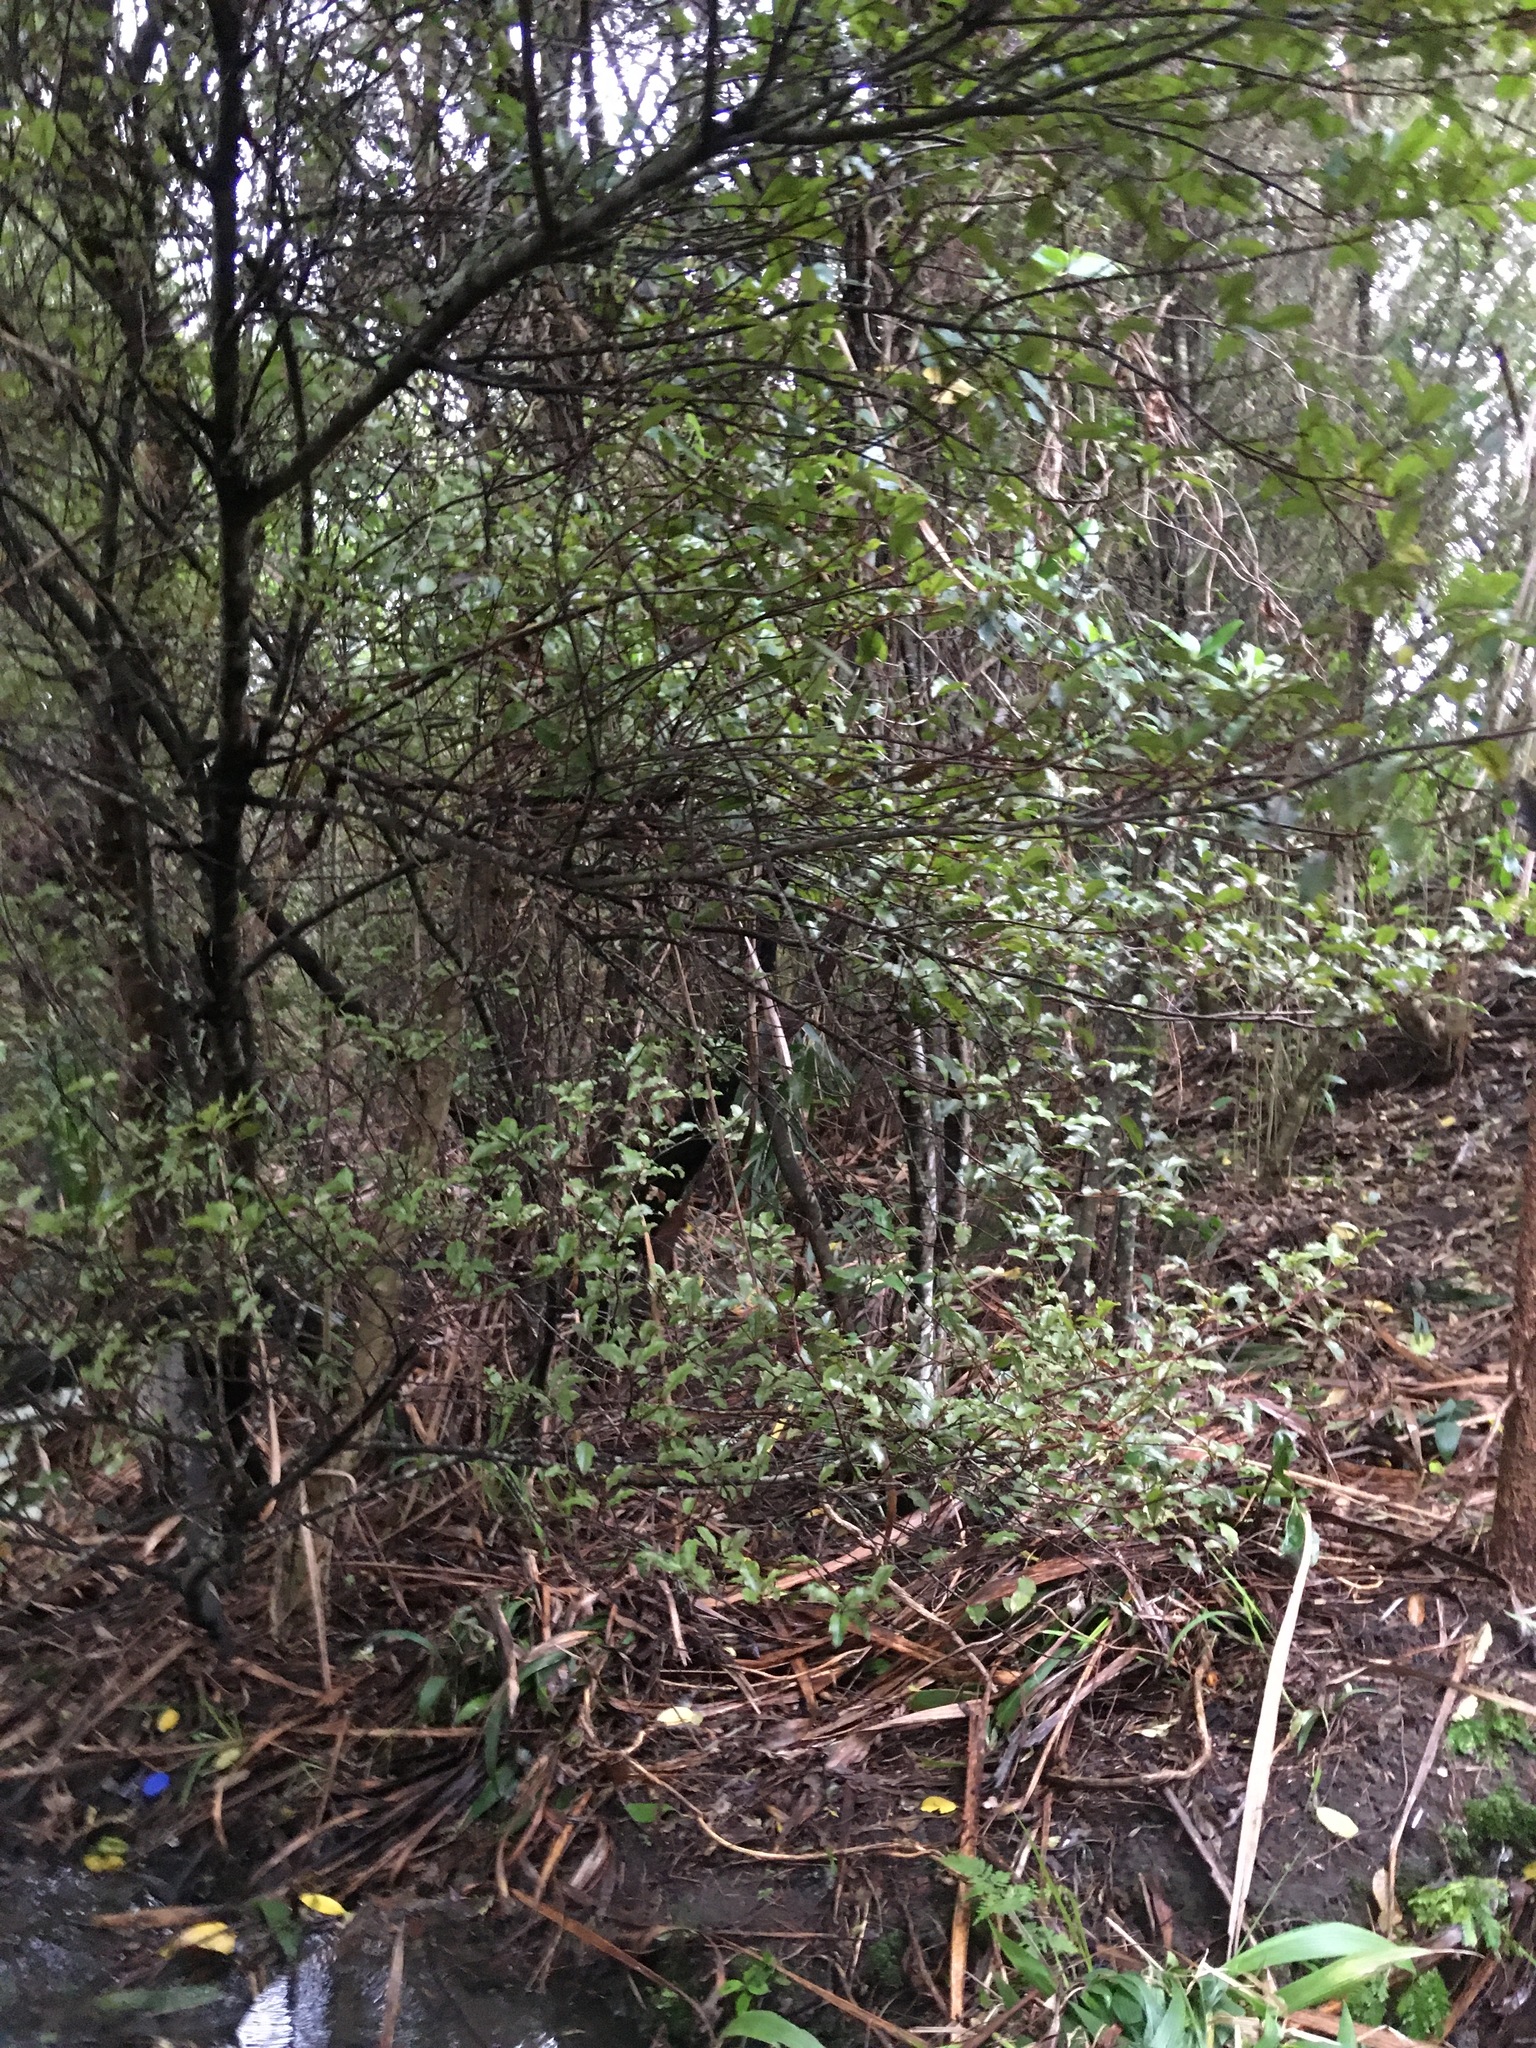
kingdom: Plantae
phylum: Tracheophyta
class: Magnoliopsida
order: Ericales
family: Primulaceae
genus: Myrsine
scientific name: Myrsine australis
